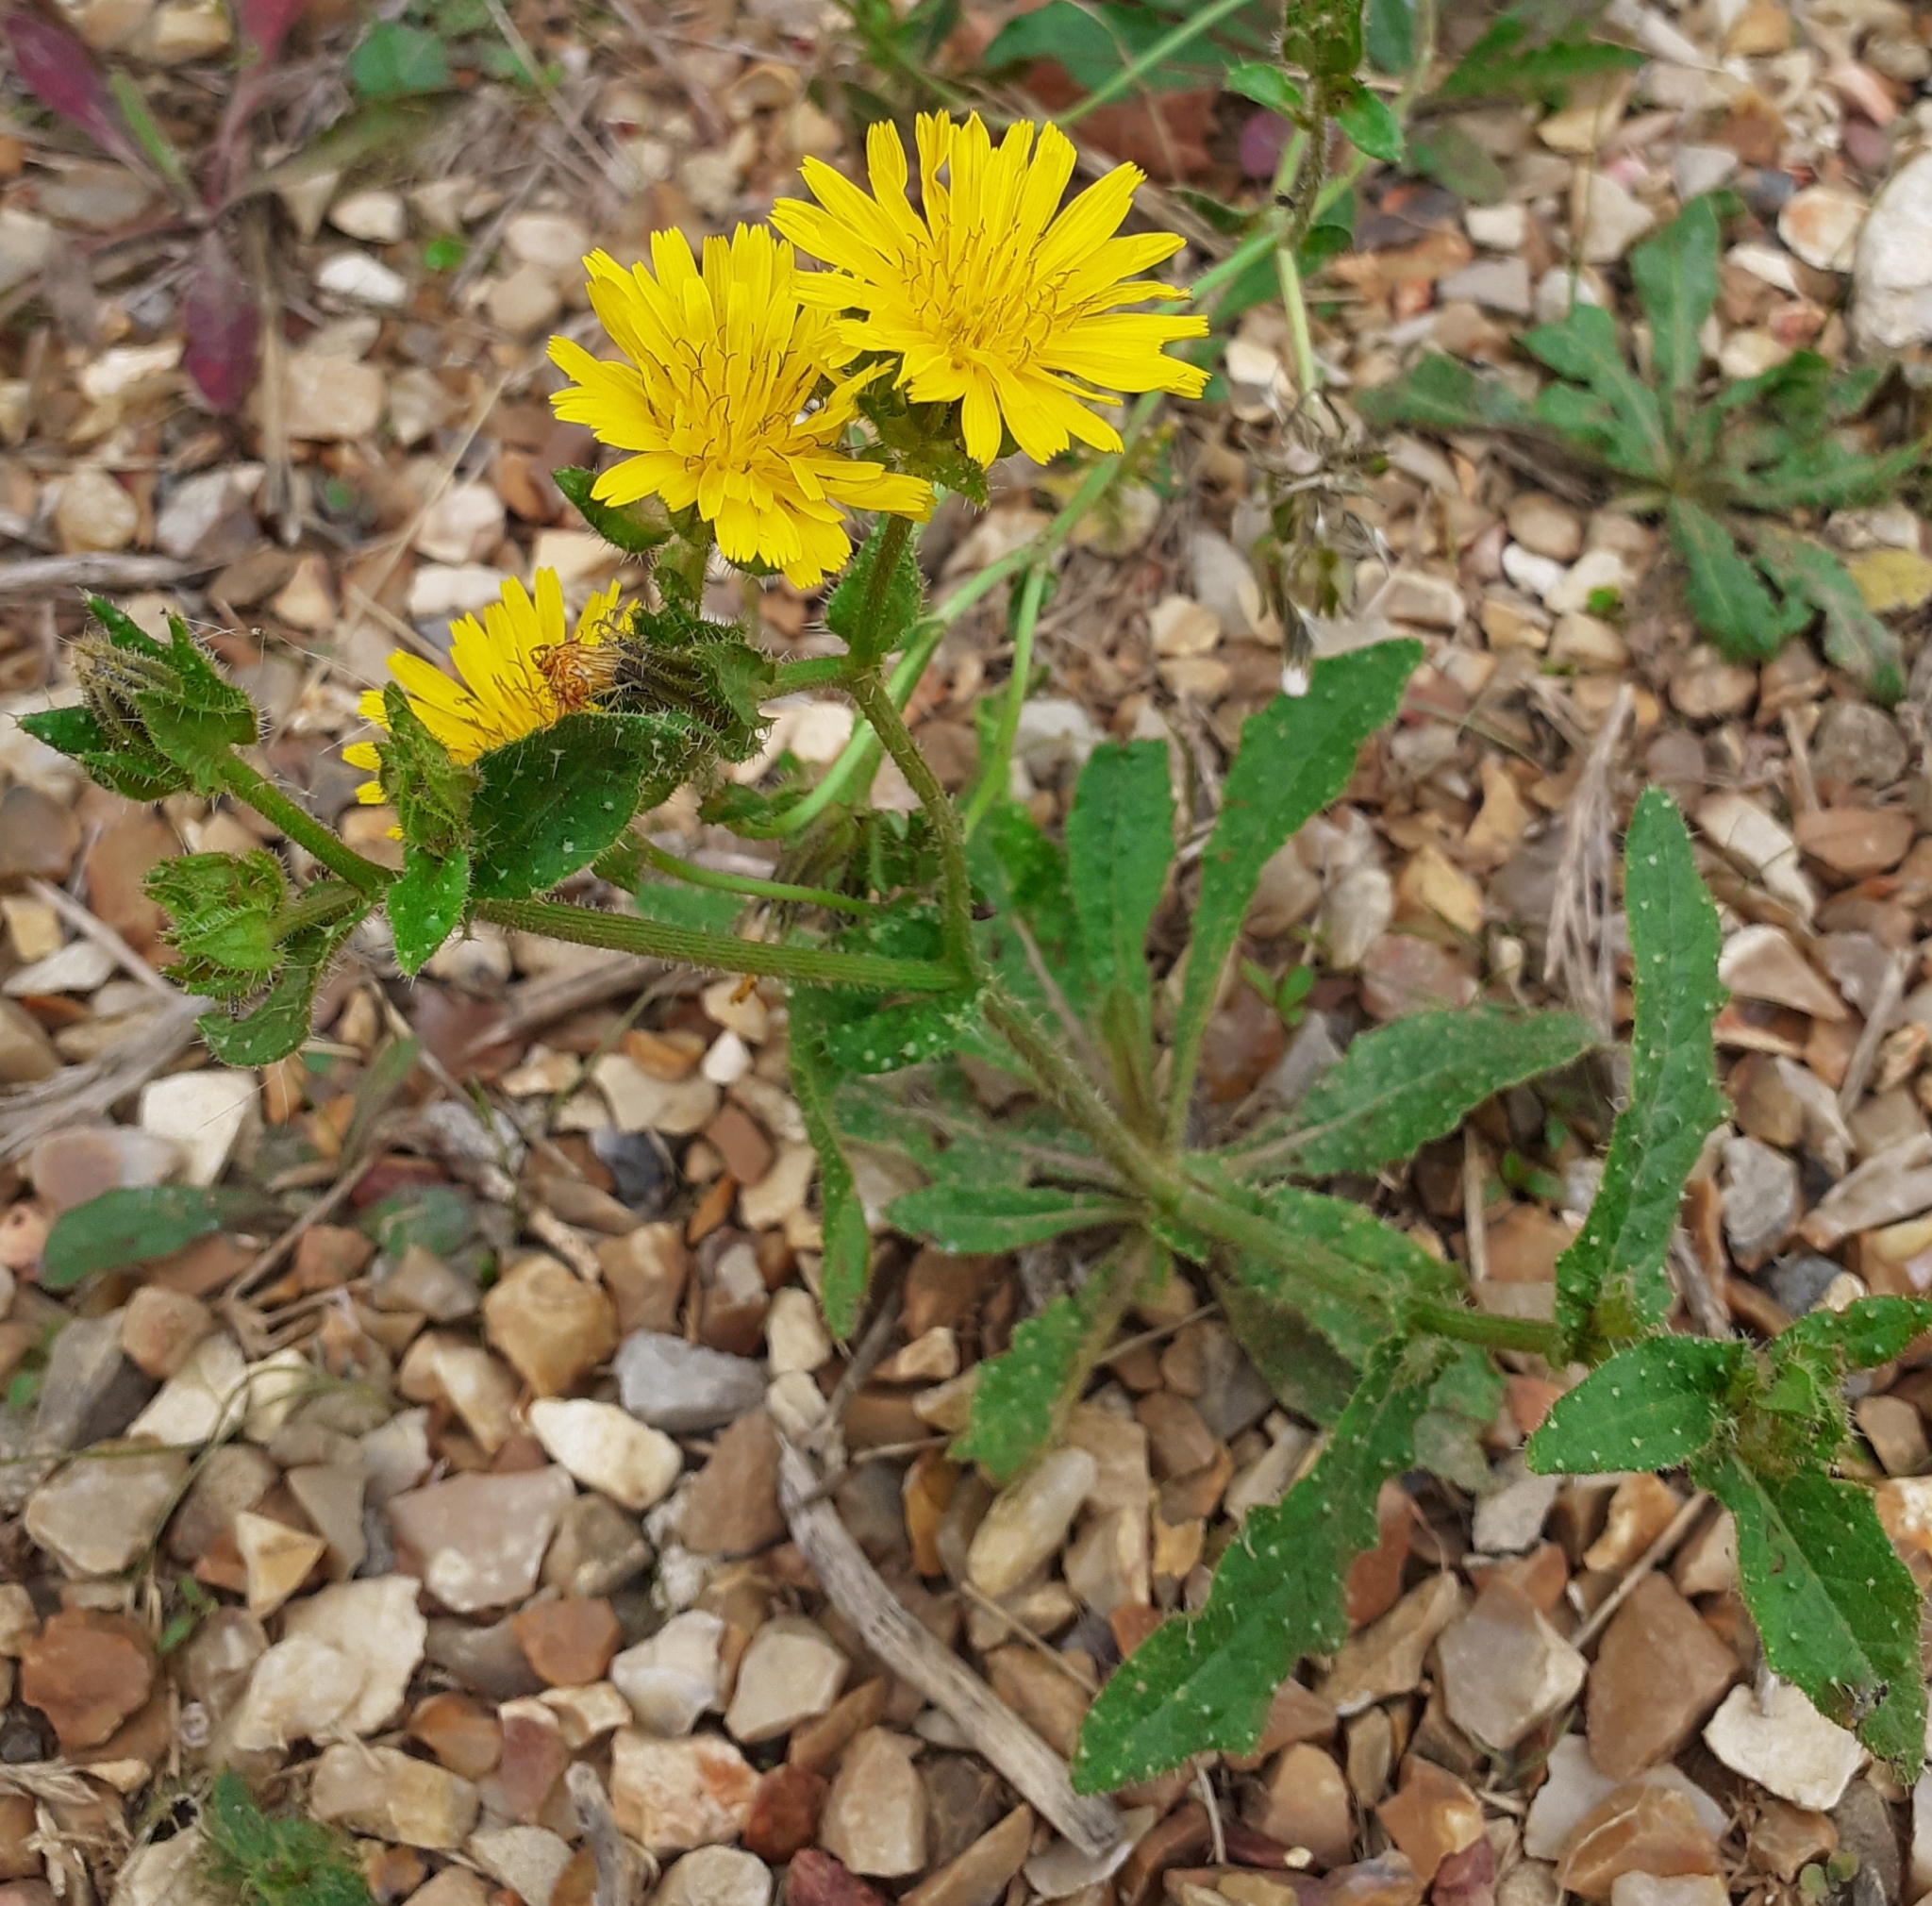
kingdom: Plantae
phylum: Tracheophyta
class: Magnoliopsida
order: Asterales
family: Asteraceae
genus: Helminthotheca
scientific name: Helminthotheca echioides
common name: Ox-tongue
